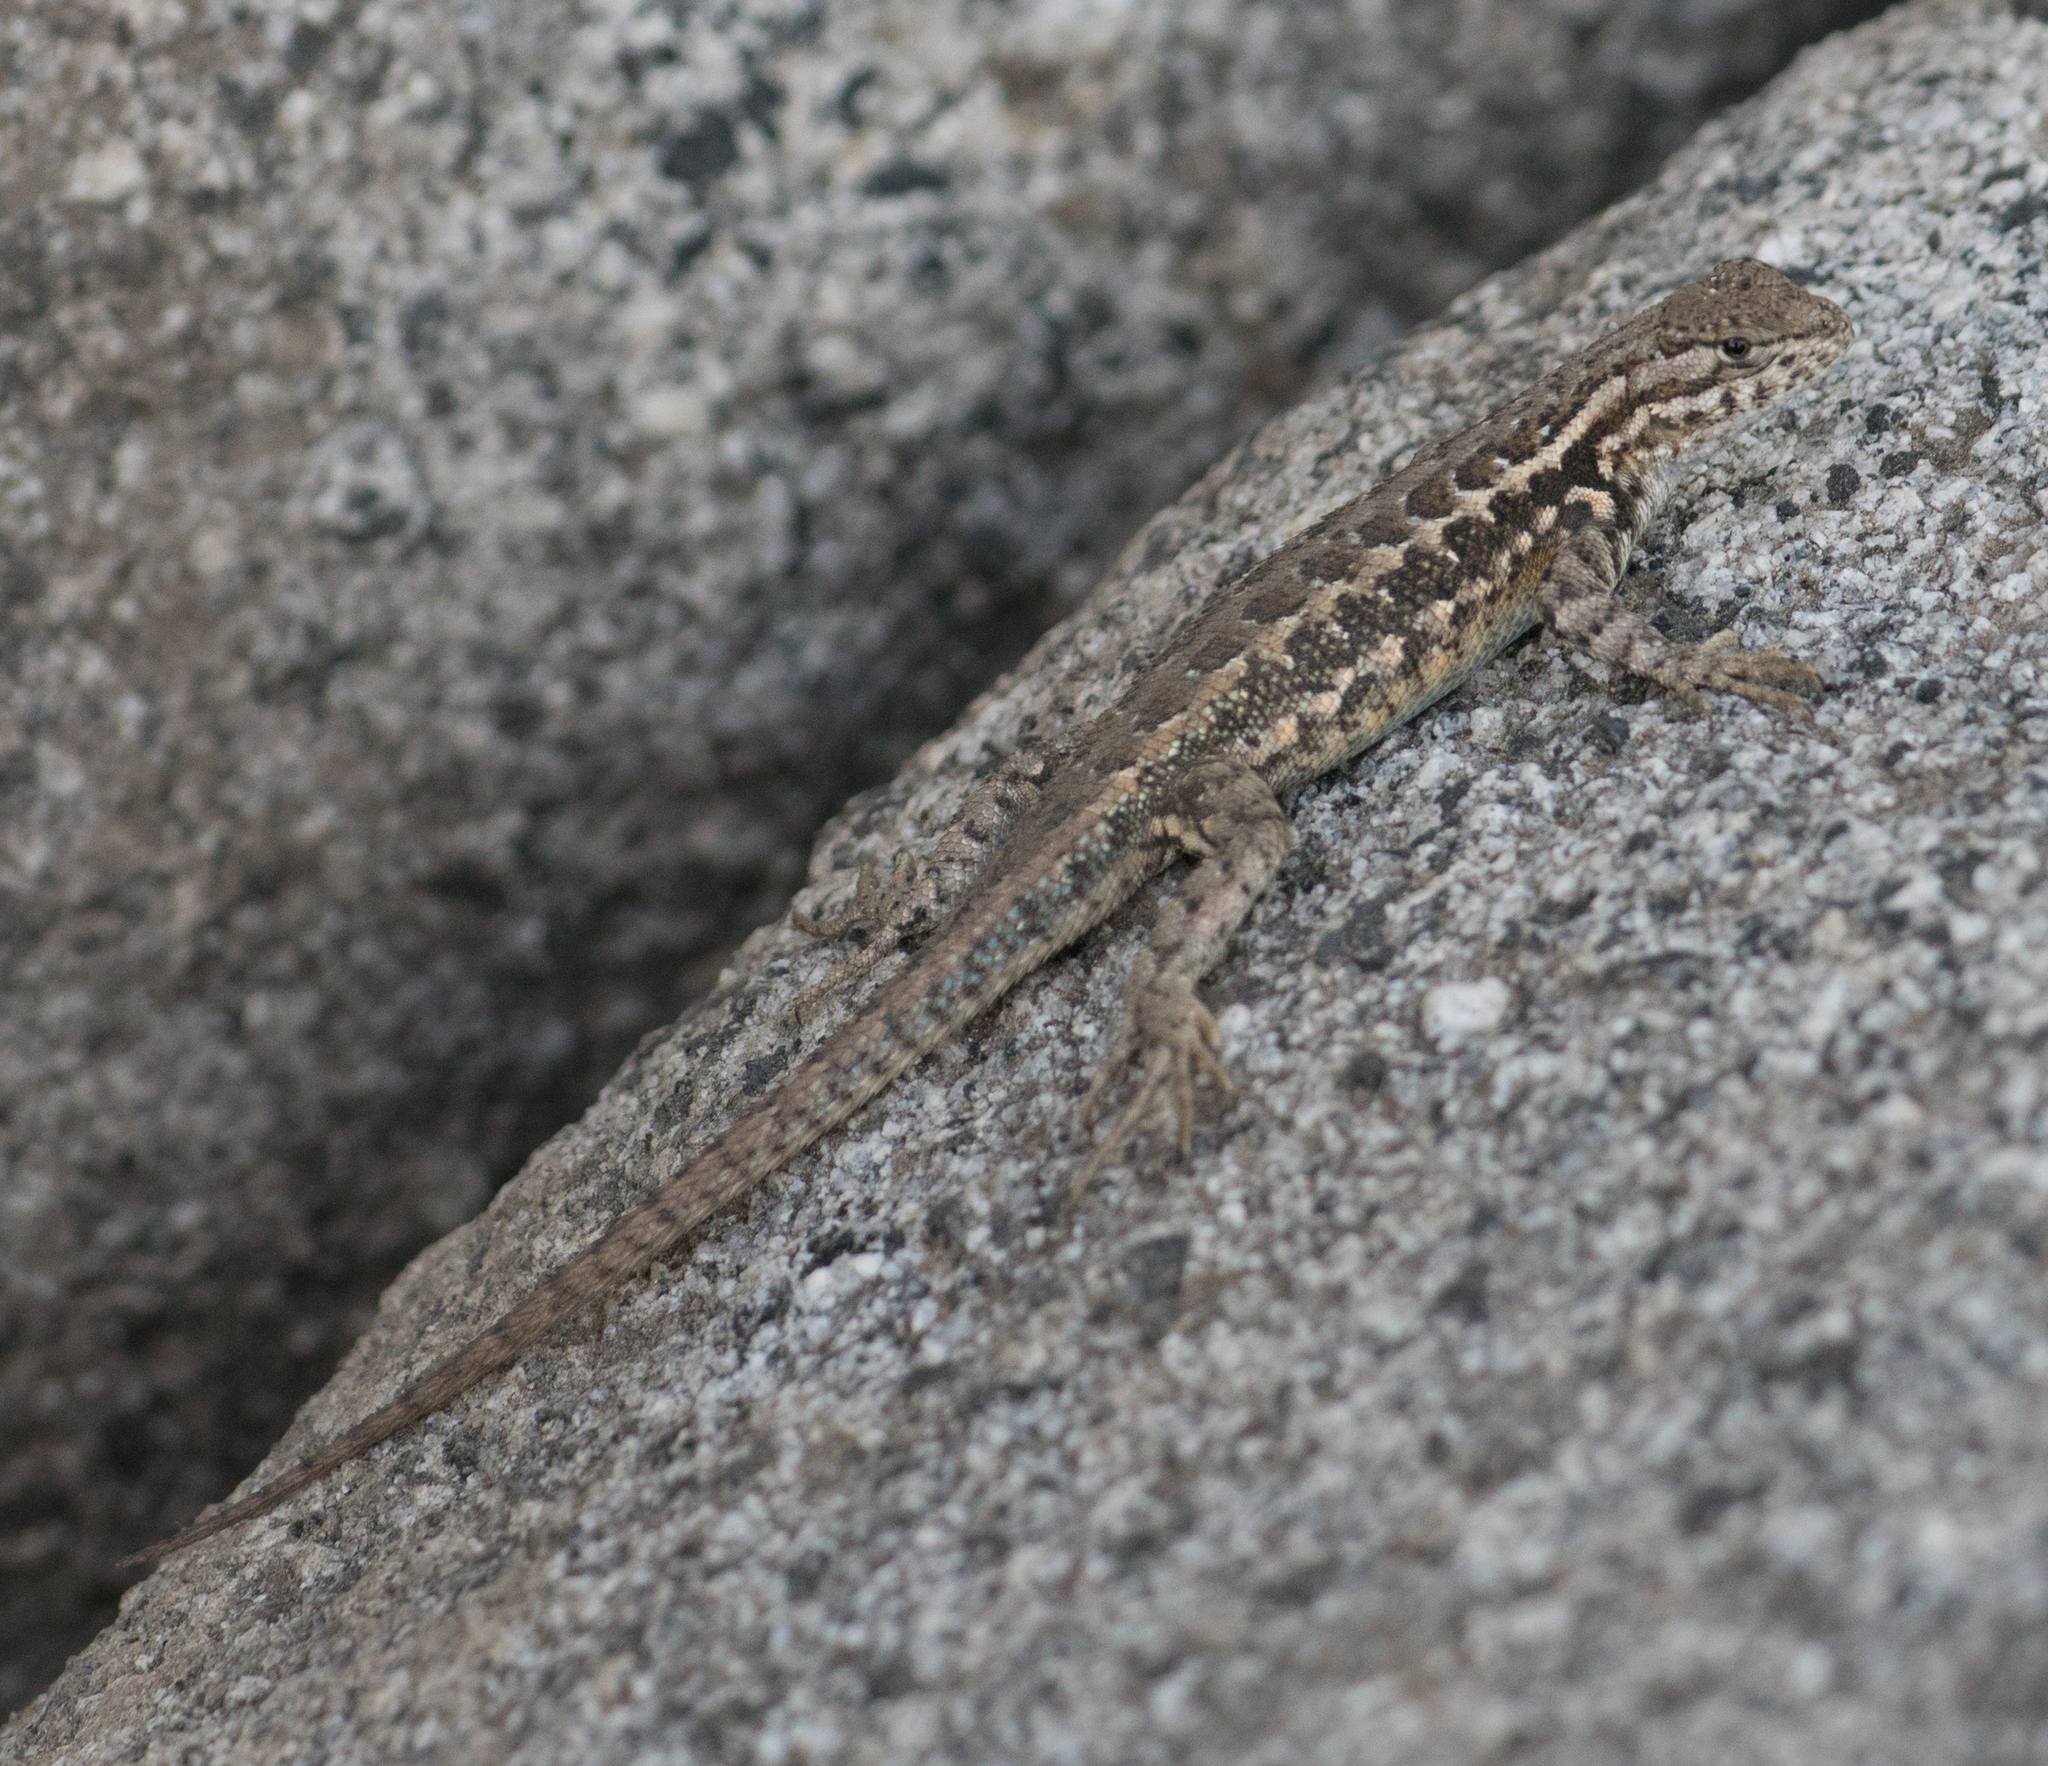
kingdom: Animalia
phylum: Chordata
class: Squamata
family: Phrynosomatidae
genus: Sceloporus
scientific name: Sceloporus graciosus
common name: Sagebrush lizard
